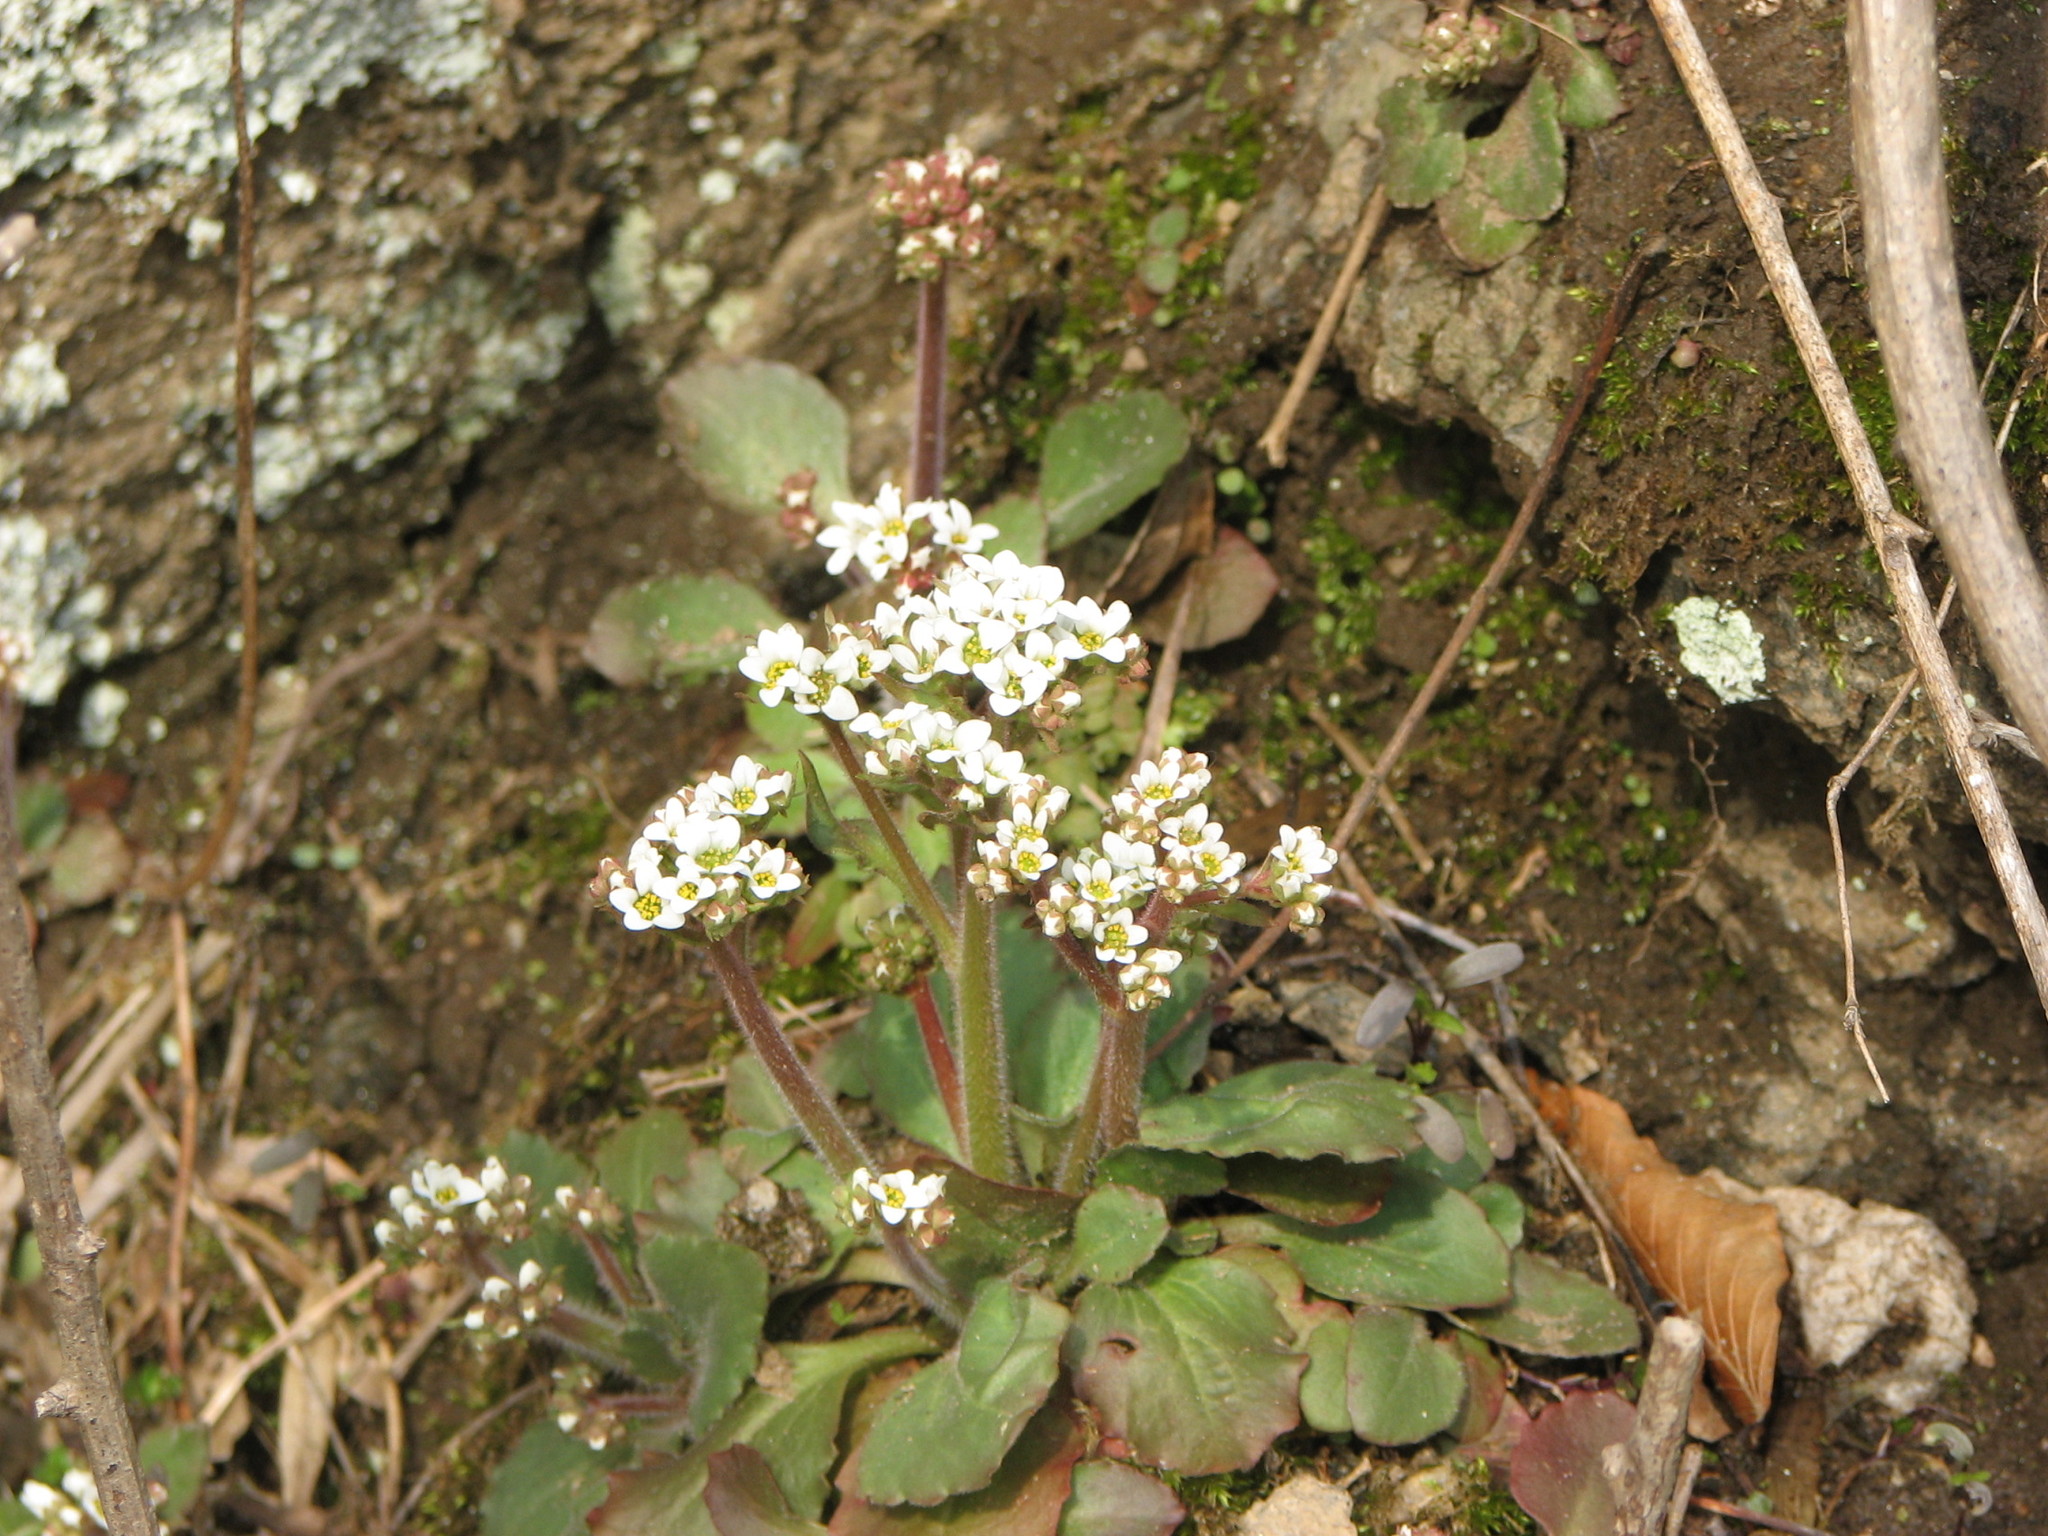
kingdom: Plantae
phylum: Tracheophyta
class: Magnoliopsida
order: Saxifragales
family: Saxifragaceae
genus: Micranthes
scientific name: Micranthes virginiensis
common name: Early saxifrage
